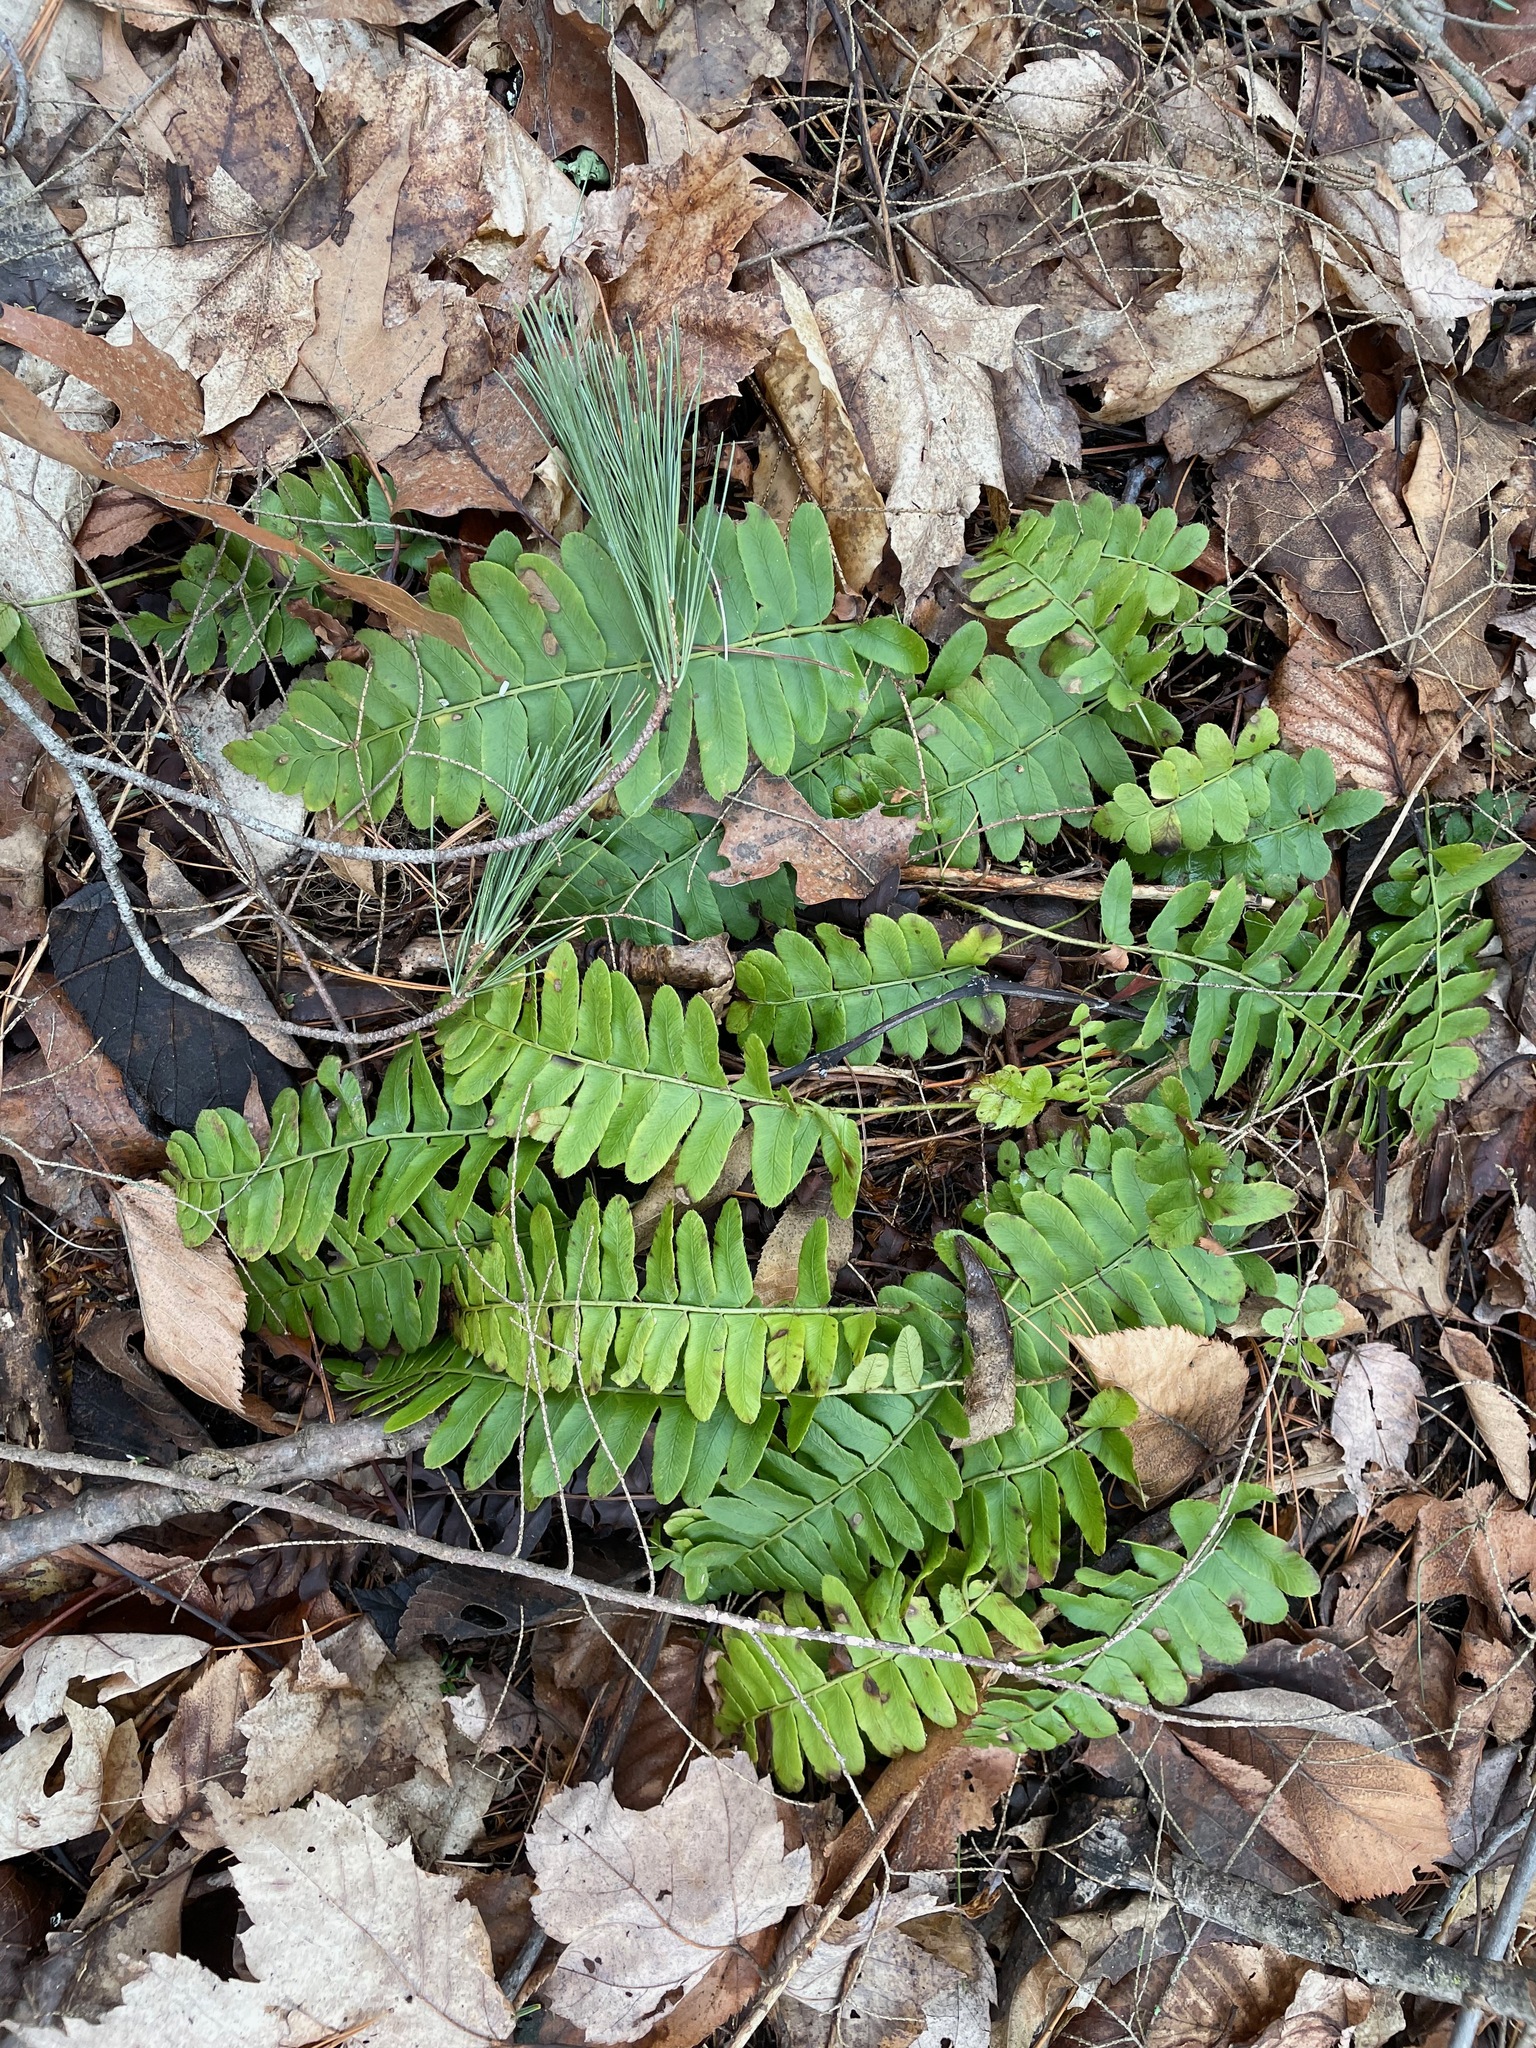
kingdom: Plantae
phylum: Tracheophyta
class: Polypodiopsida
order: Polypodiales
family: Dryopteridaceae
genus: Polystichum
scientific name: Polystichum acrostichoides
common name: Christmas fern
